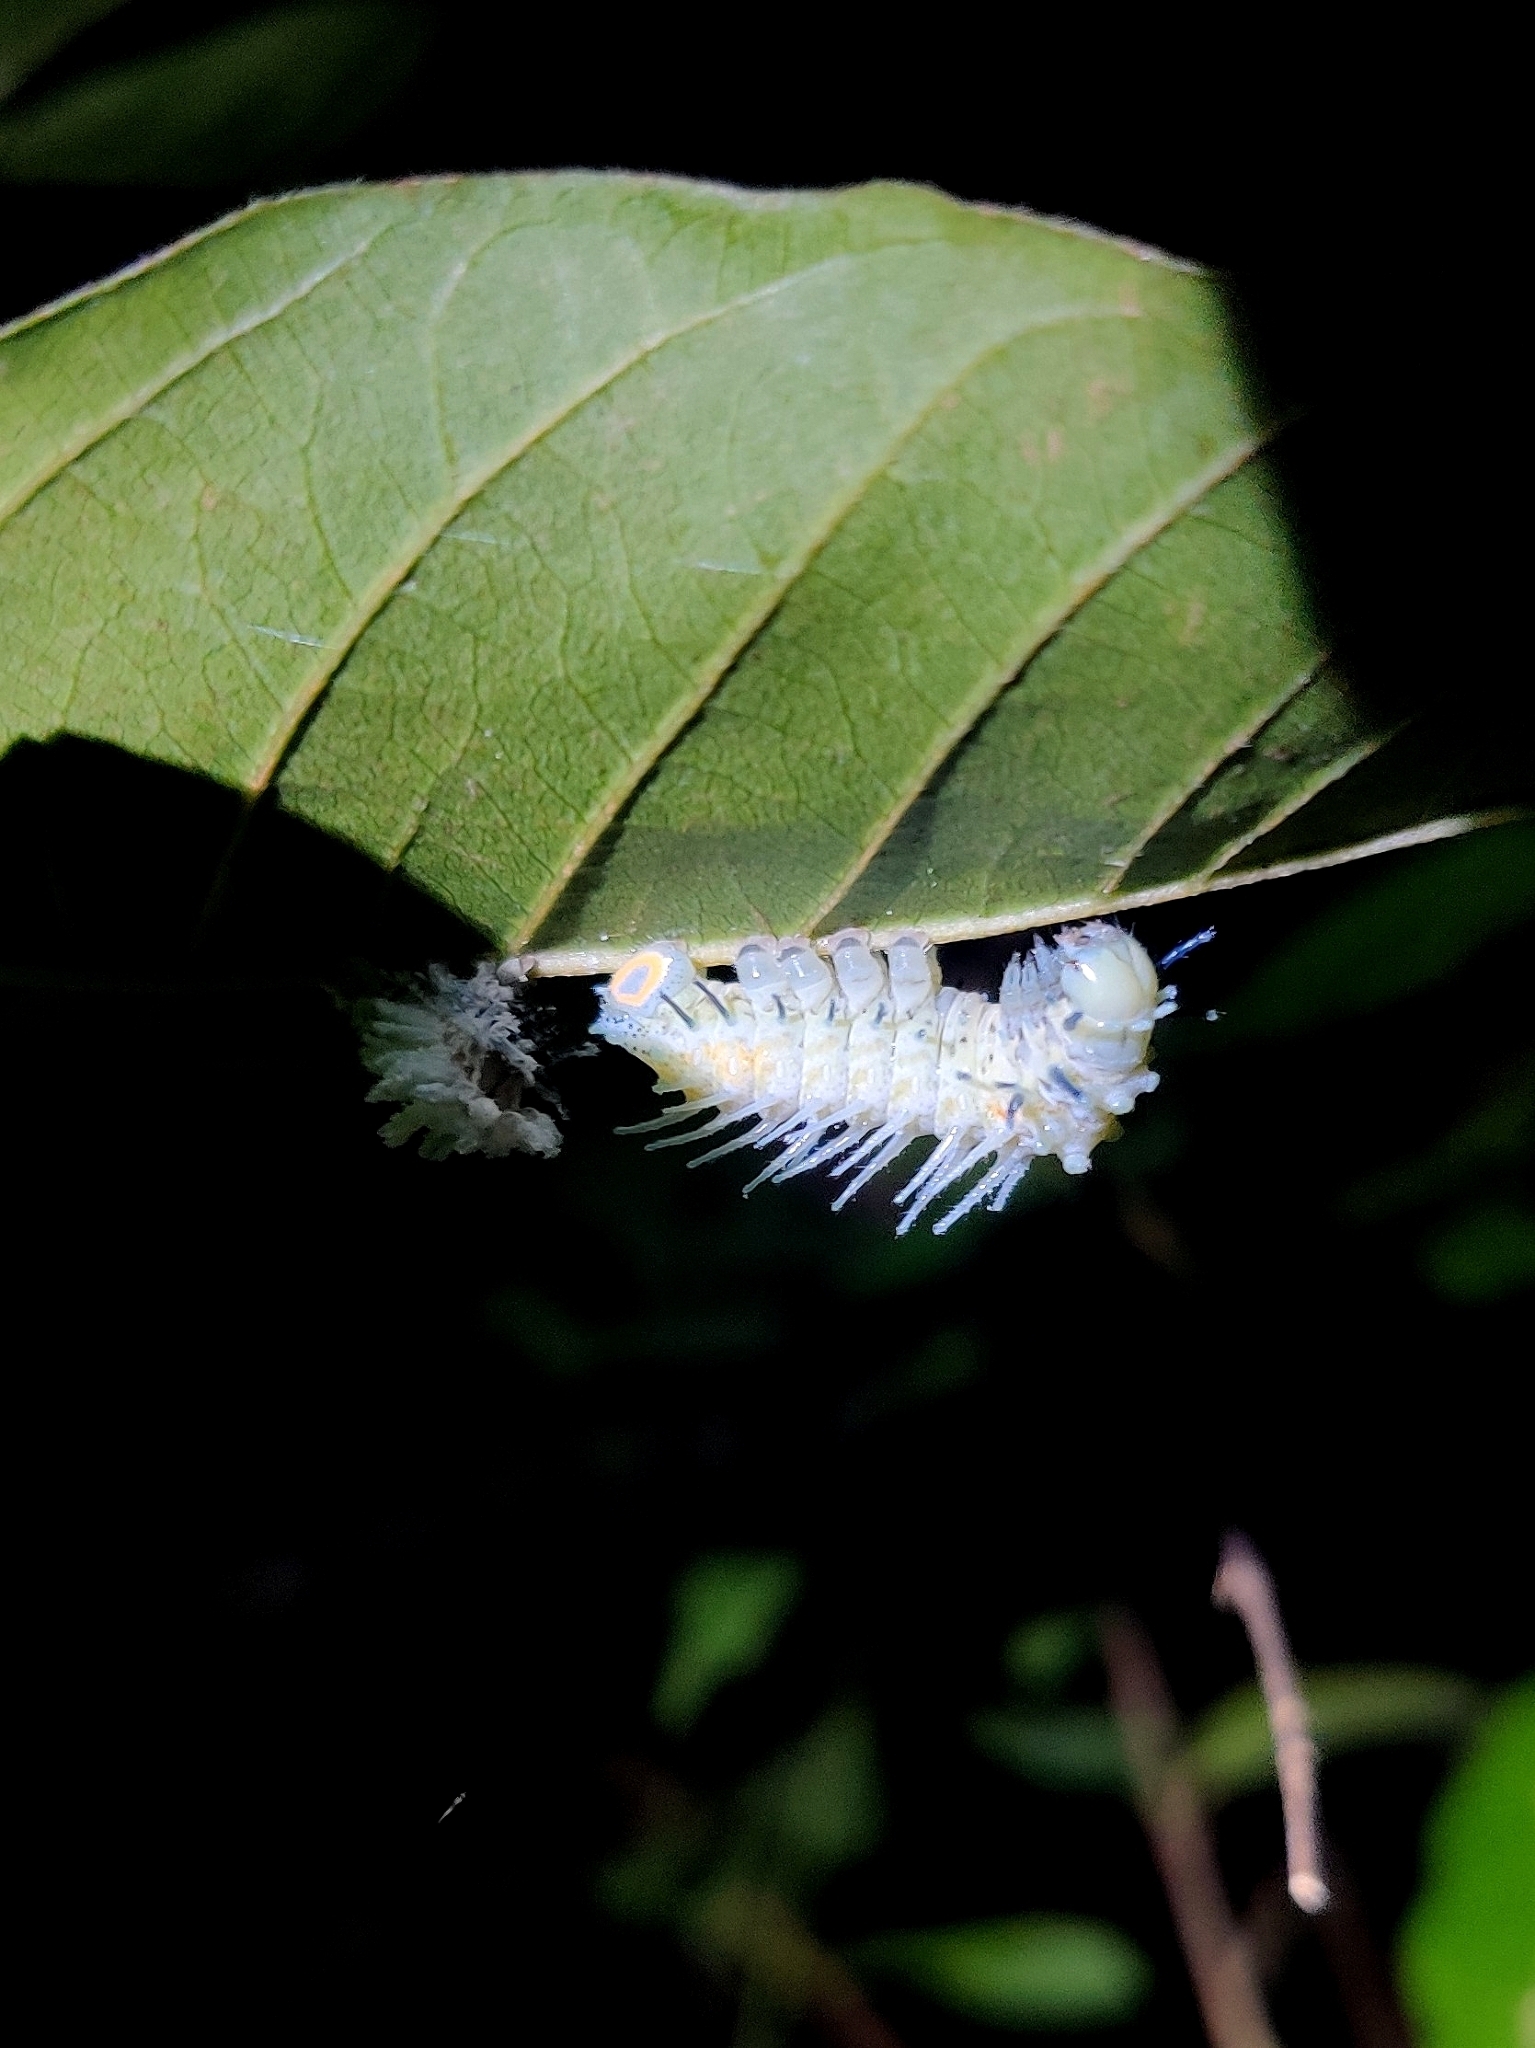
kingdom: Animalia
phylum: Arthropoda
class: Insecta
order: Lepidoptera
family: Saturniidae
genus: Attacus
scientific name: Attacus taprobanis
